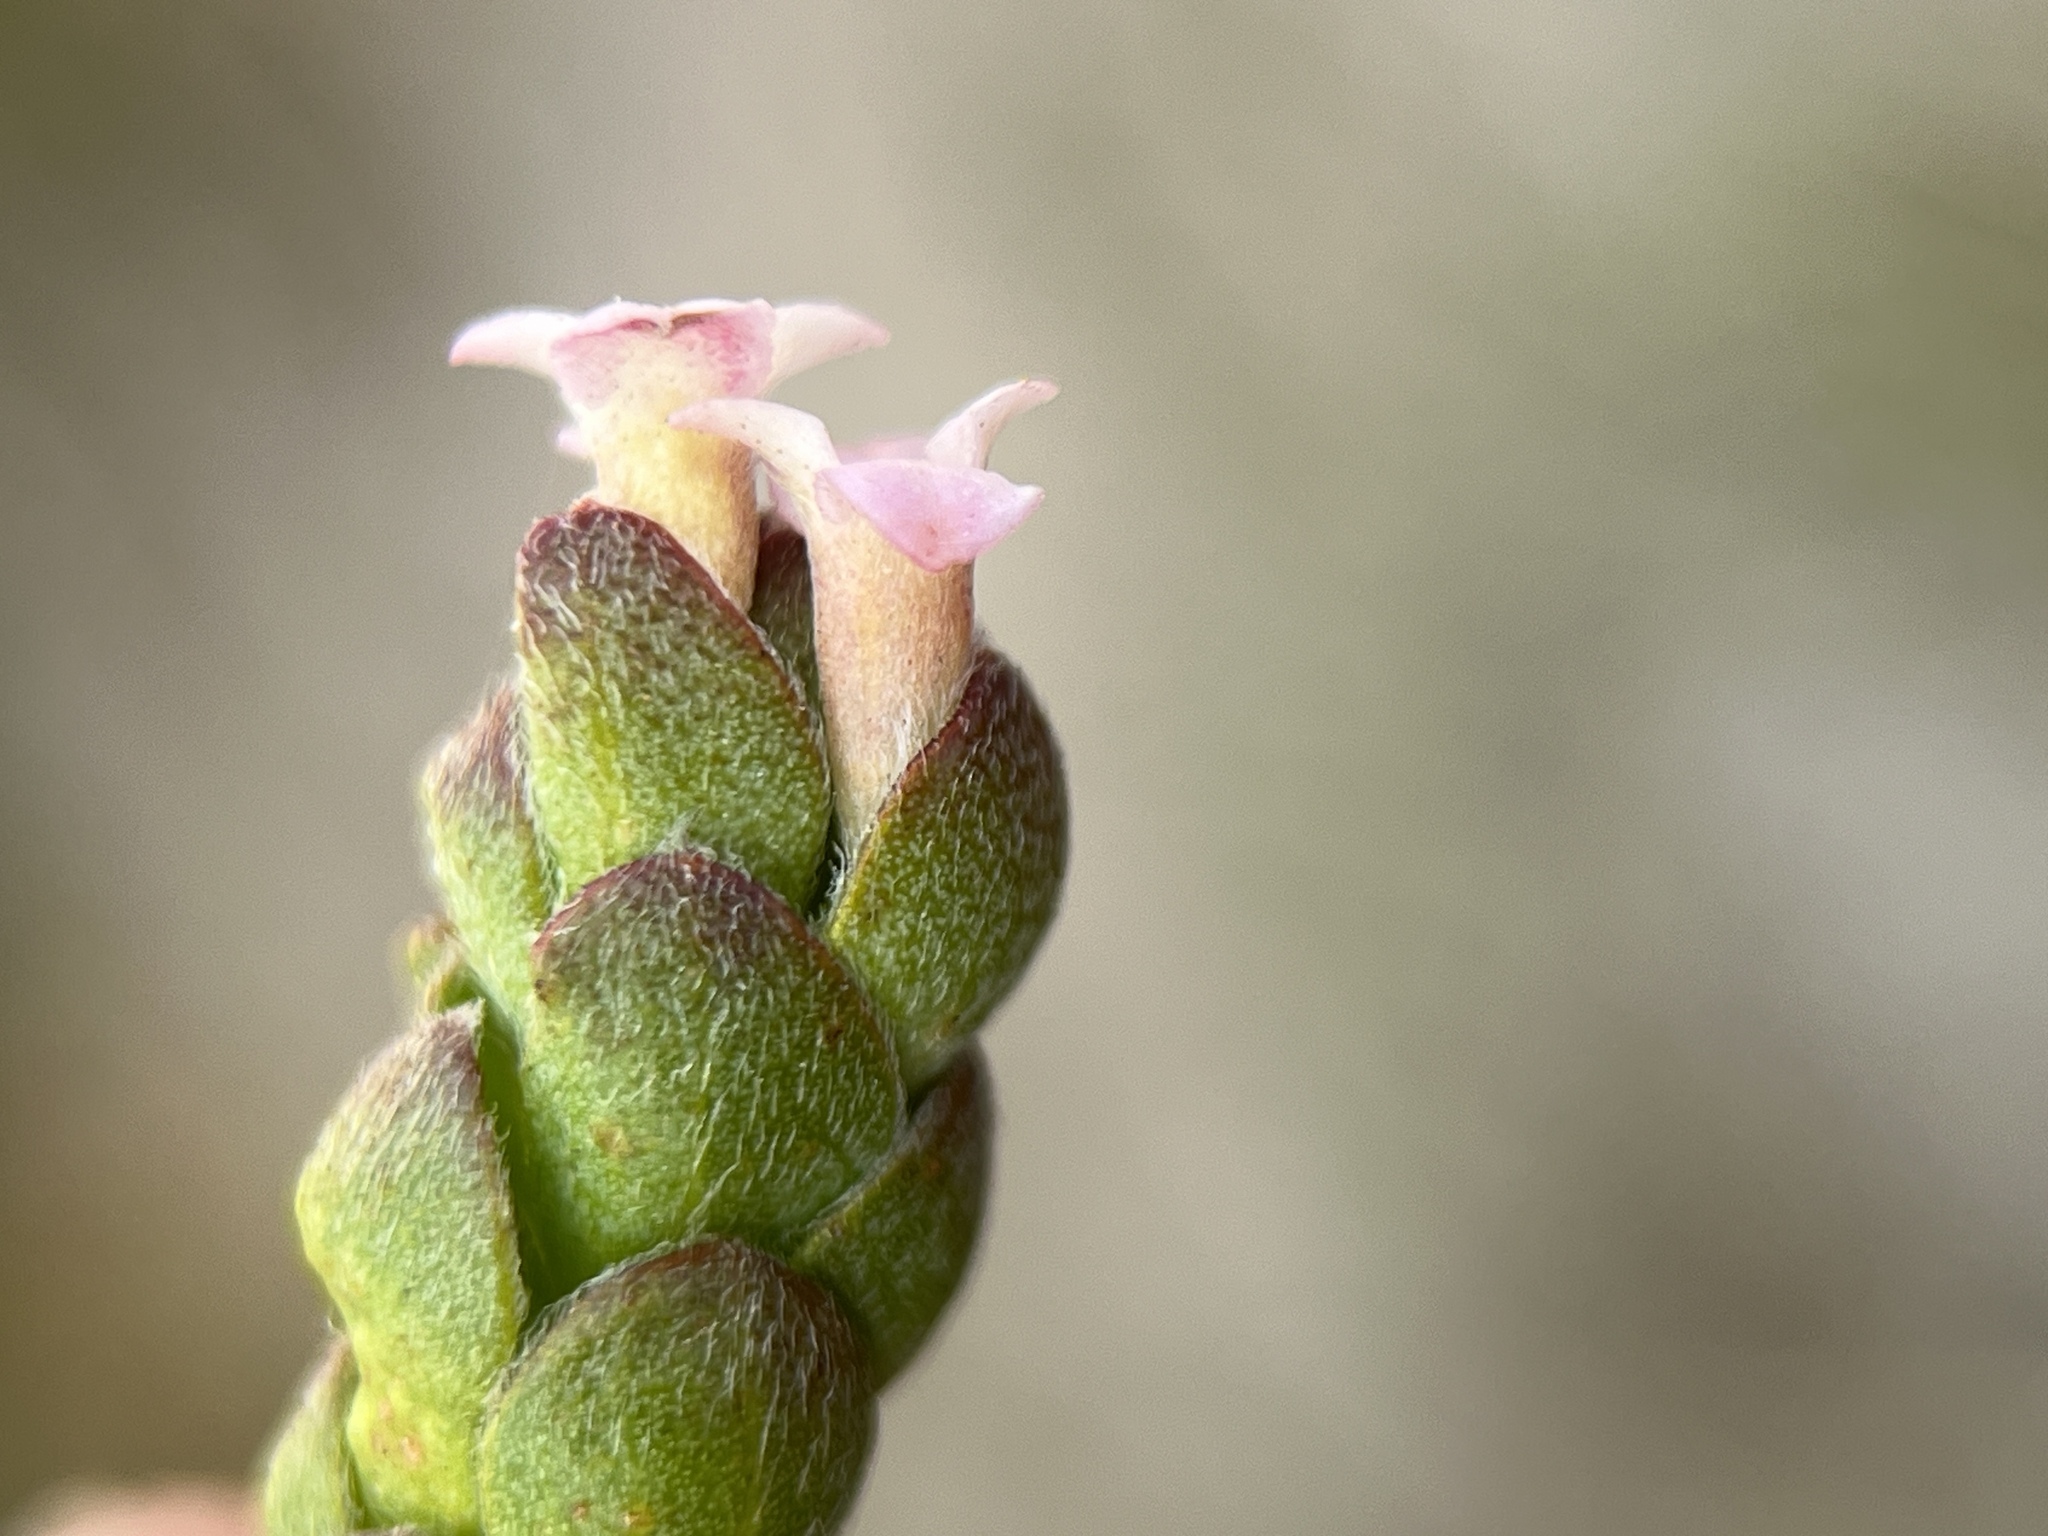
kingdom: Plantae
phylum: Tracheophyta
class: Magnoliopsida
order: Malvales
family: Thymelaeaceae
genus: Gnidia
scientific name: Gnidia spicata
